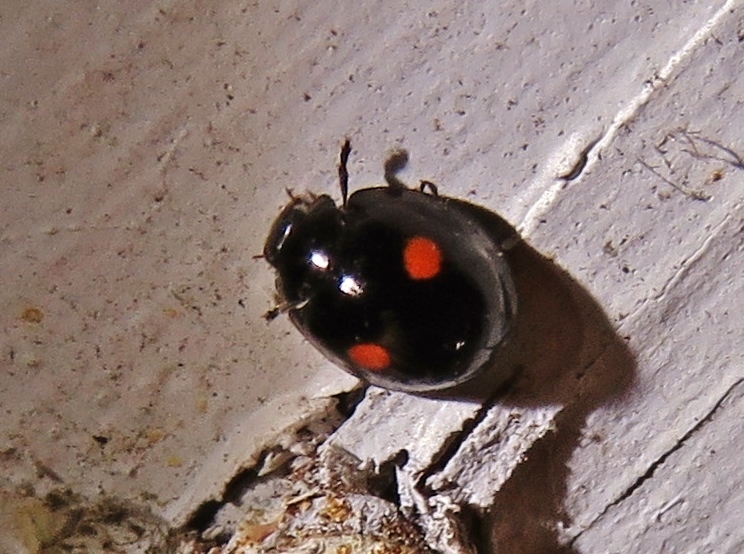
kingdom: Animalia
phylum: Arthropoda
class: Insecta
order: Coleoptera
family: Coccinellidae
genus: Chilocorus
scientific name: Chilocorus stigma
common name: Twicestabbed lady beetle
